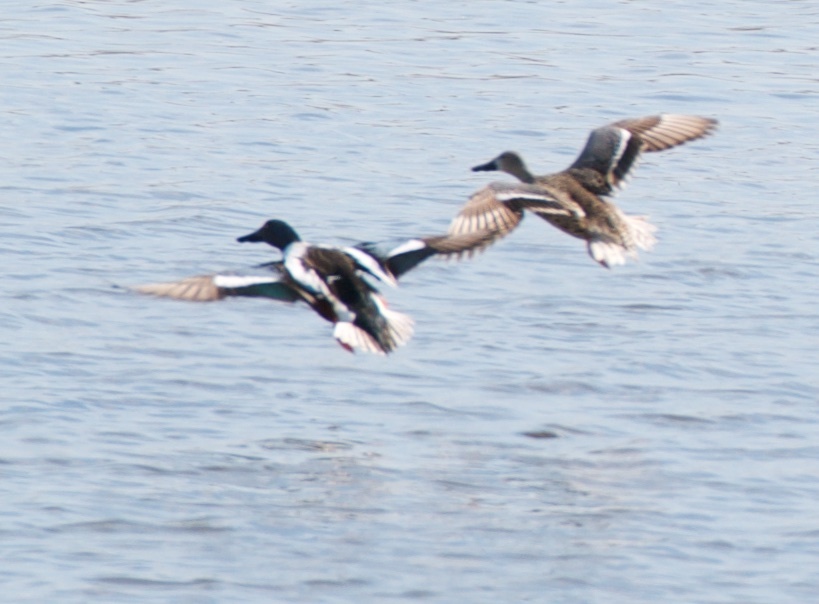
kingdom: Animalia
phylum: Chordata
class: Aves
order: Anseriformes
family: Anatidae
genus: Spatula
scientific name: Spatula clypeata
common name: Northern shoveler
